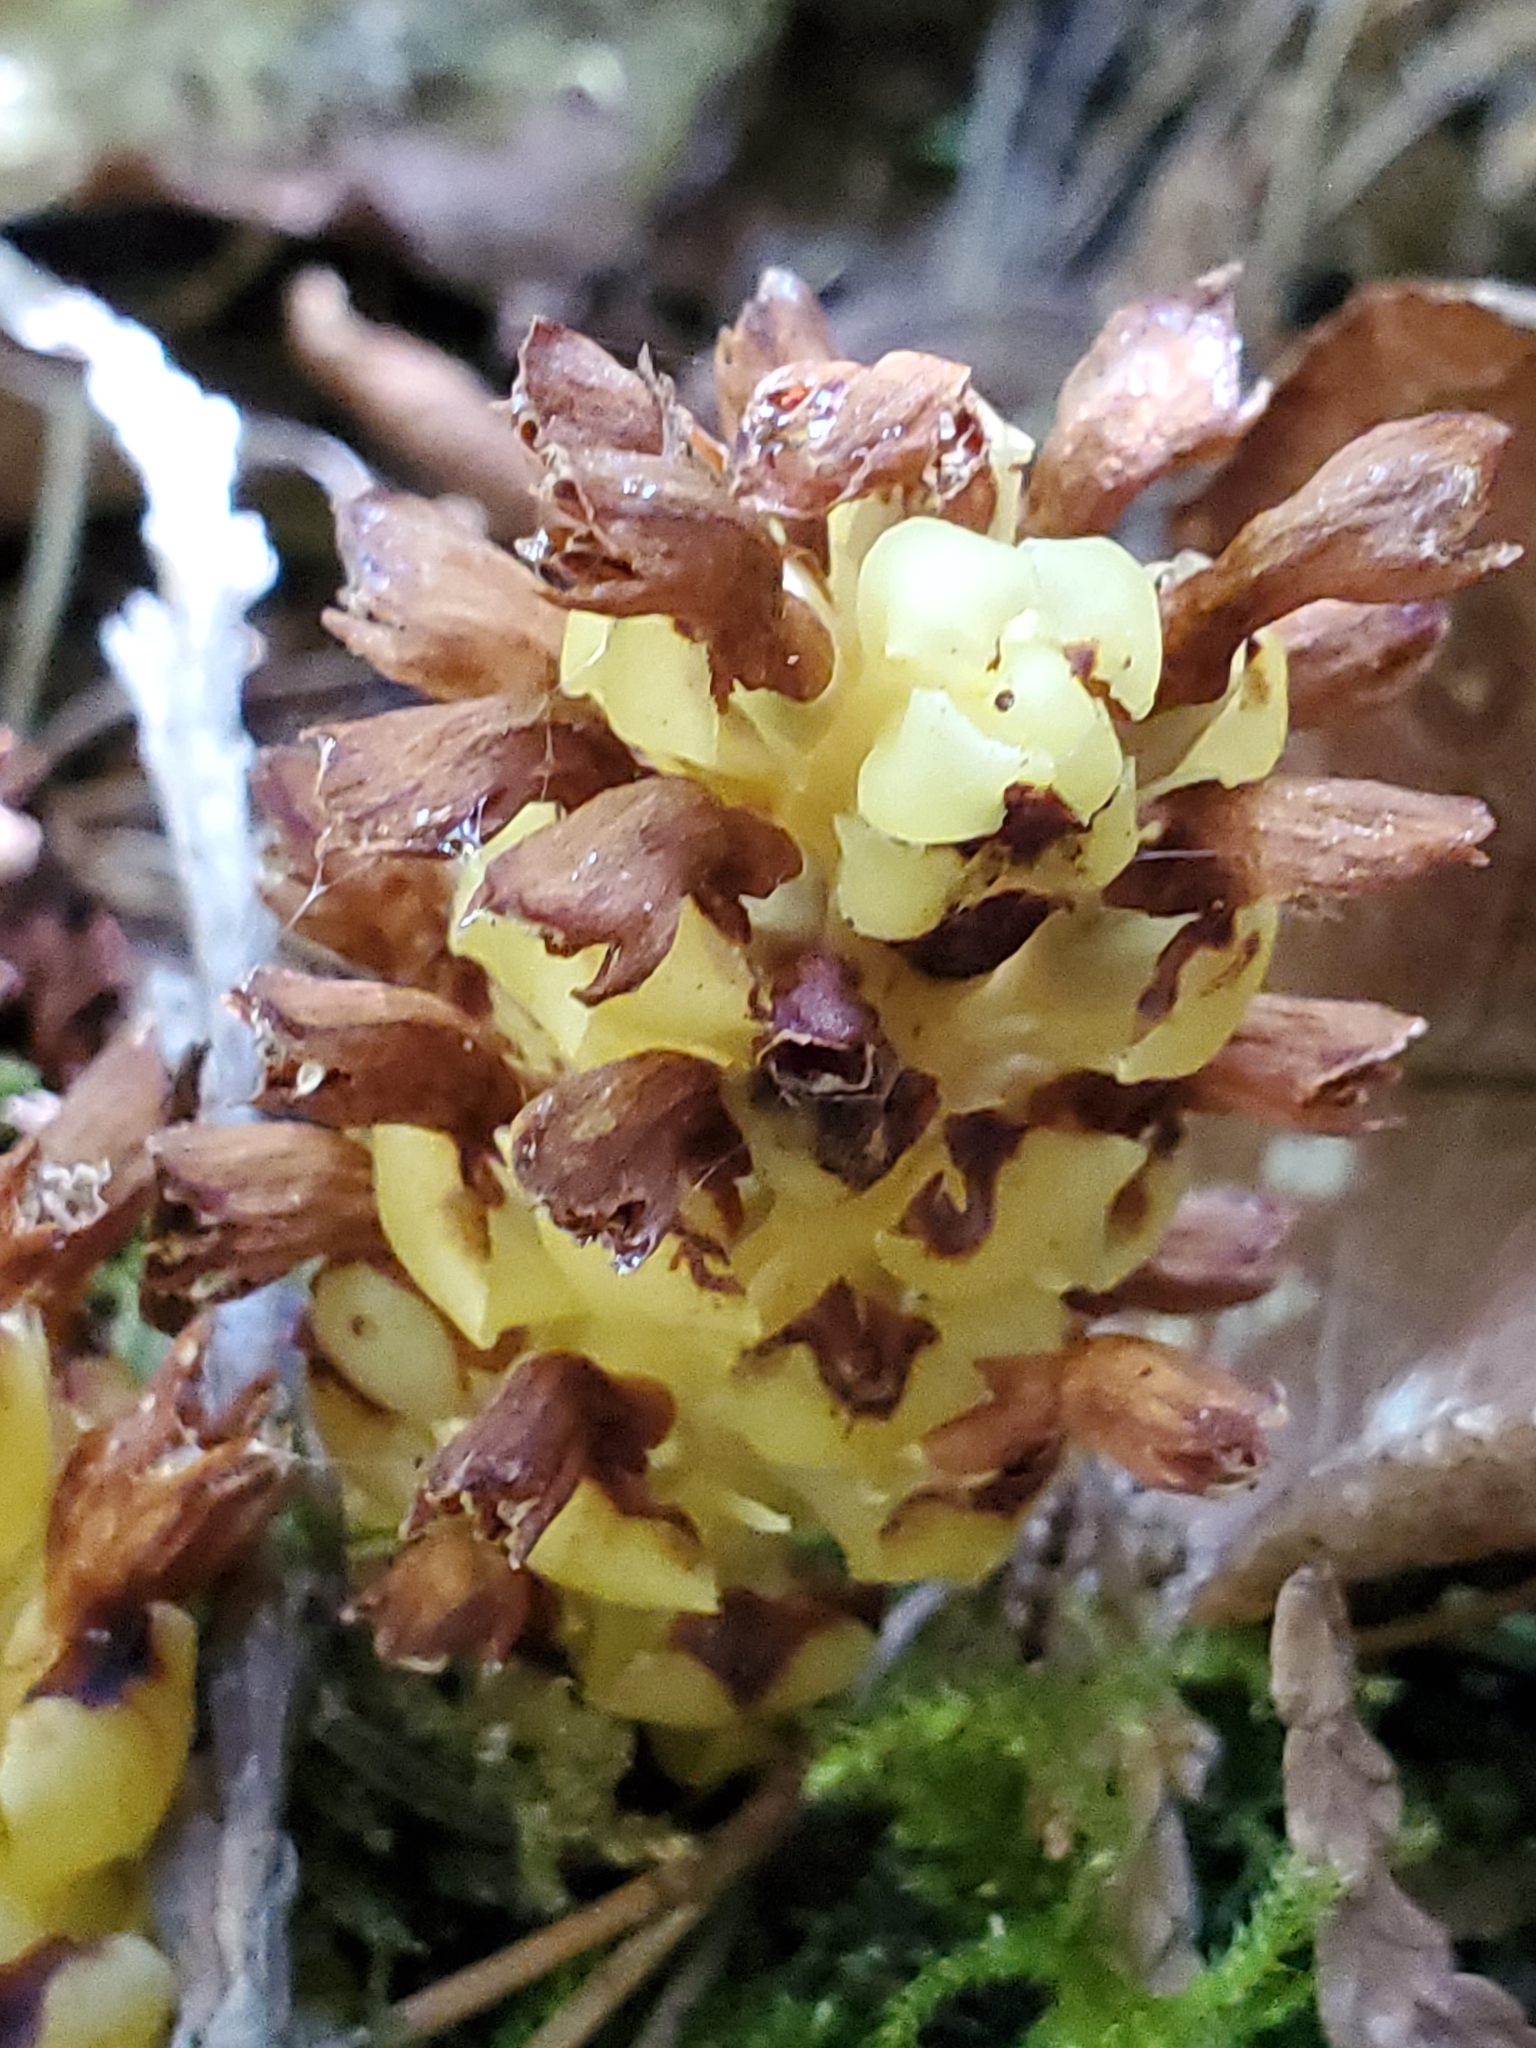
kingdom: Plantae
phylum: Tracheophyta
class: Magnoliopsida
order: Lamiales
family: Orobanchaceae
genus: Kopsiopsis
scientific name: Kopsiopsis hookeri
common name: Hooker's groundcone
